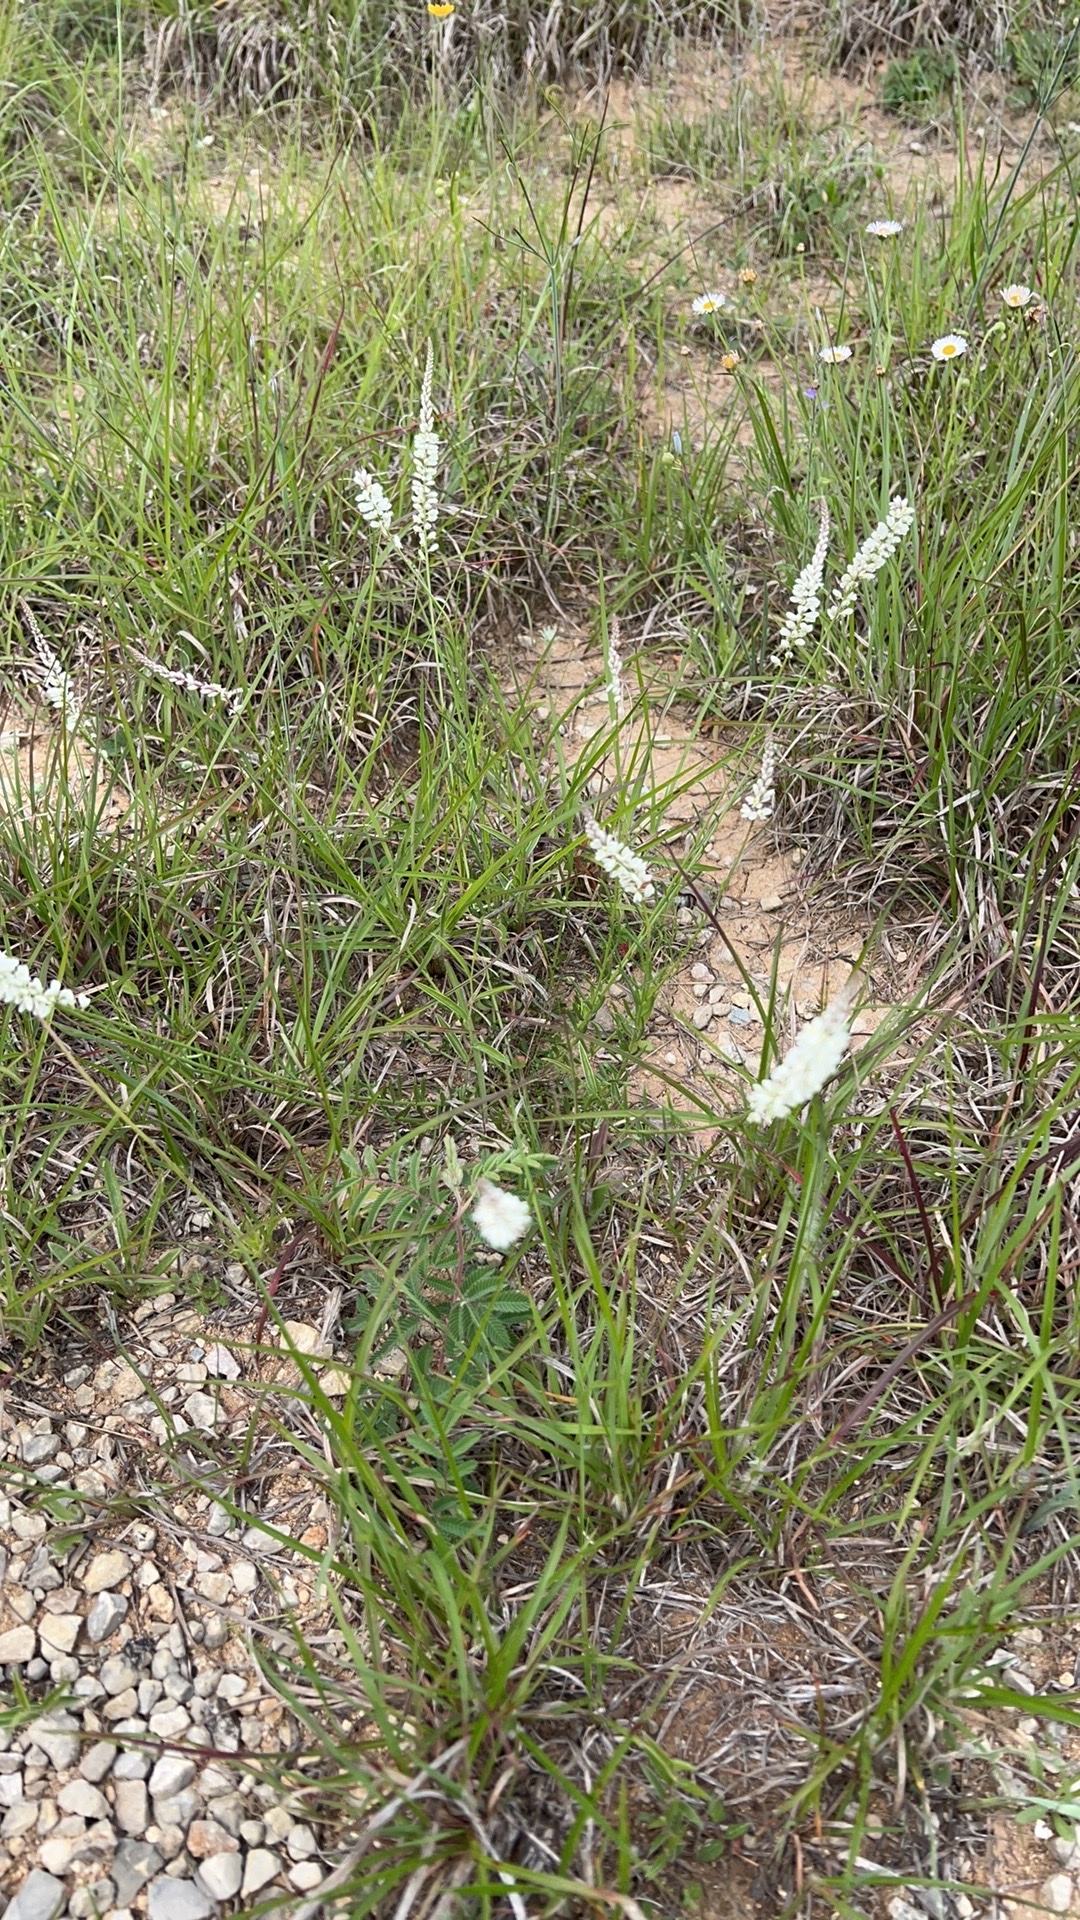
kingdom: Plantae
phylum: Tracheophyta
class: Magnoliopsida
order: Fabales
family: Polygalaceae
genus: Polygala
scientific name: Polygala alba
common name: White milkwort
